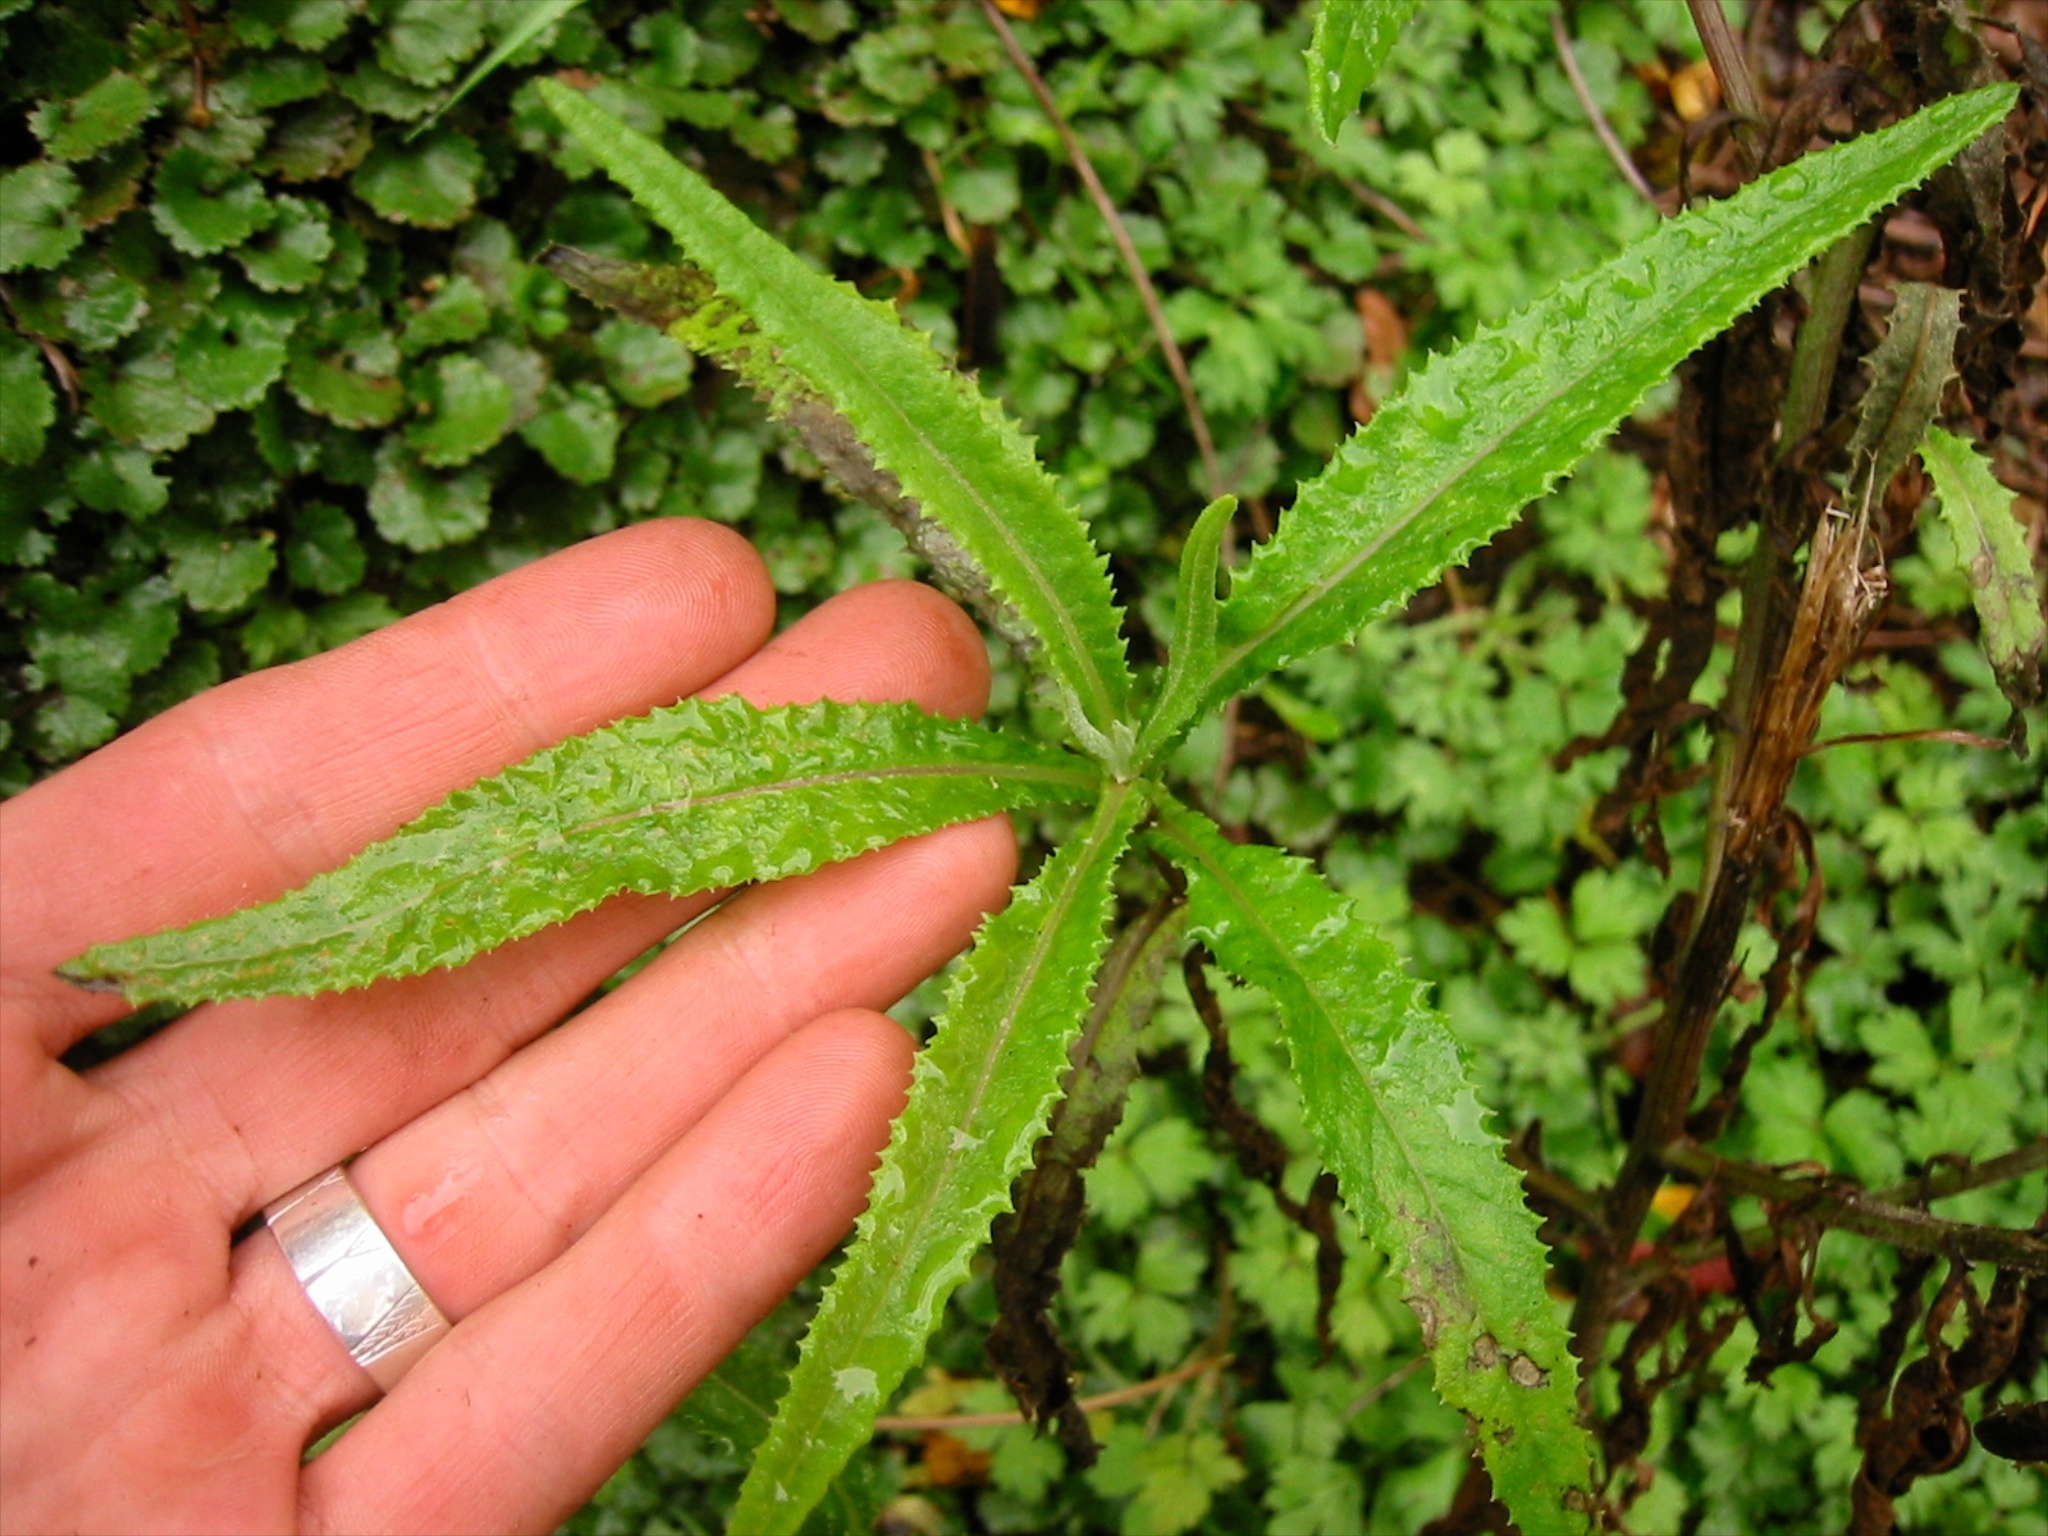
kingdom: Plantae
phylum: Tracheophyta
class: Magnoliopsida
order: Asterales
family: Asteraceae
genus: Senecio
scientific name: Senecio minimus
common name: Toothed fireweed
